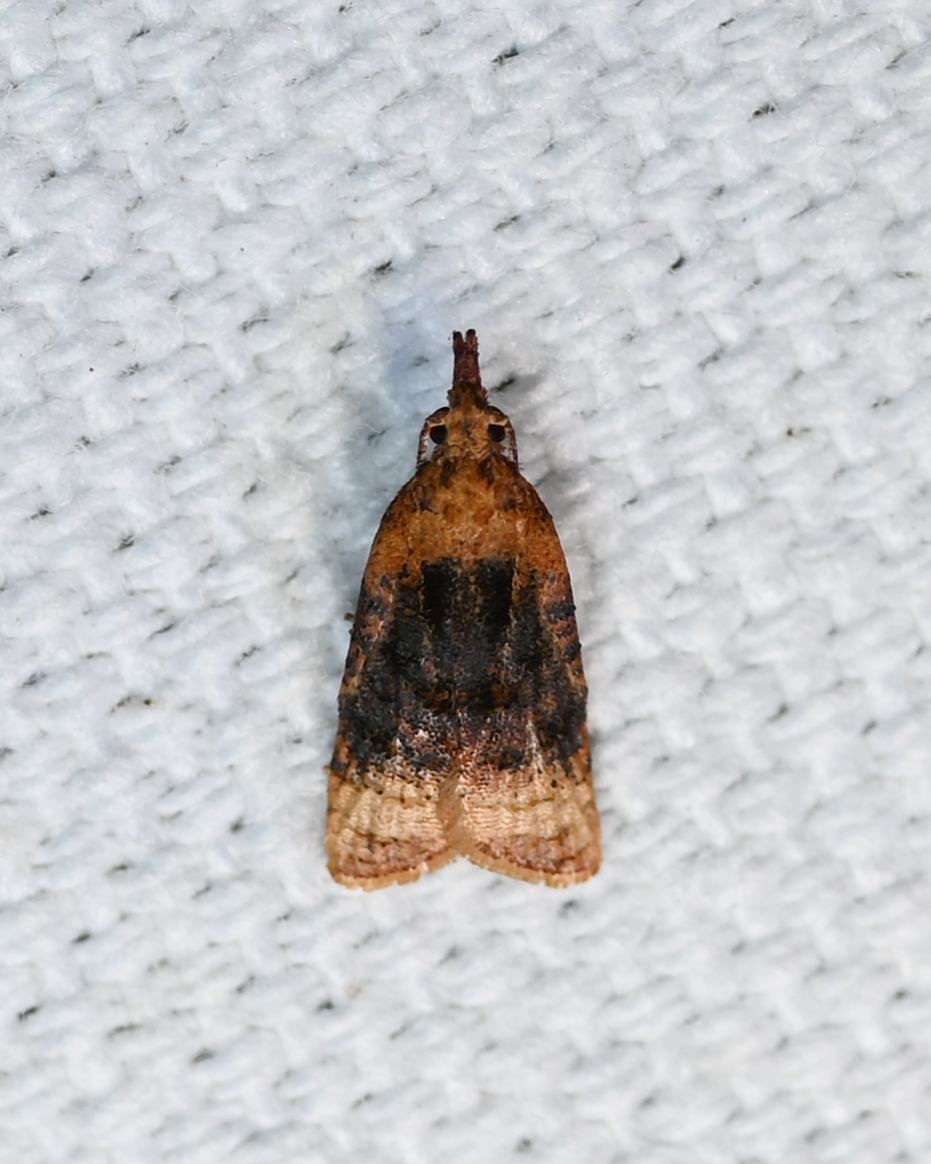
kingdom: Animalia
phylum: Arthropoda
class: Insecta
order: Lepidoptera
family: Tortricidae
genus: Platynota
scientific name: Platynota flavedana
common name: Black-shaded platynota moth
